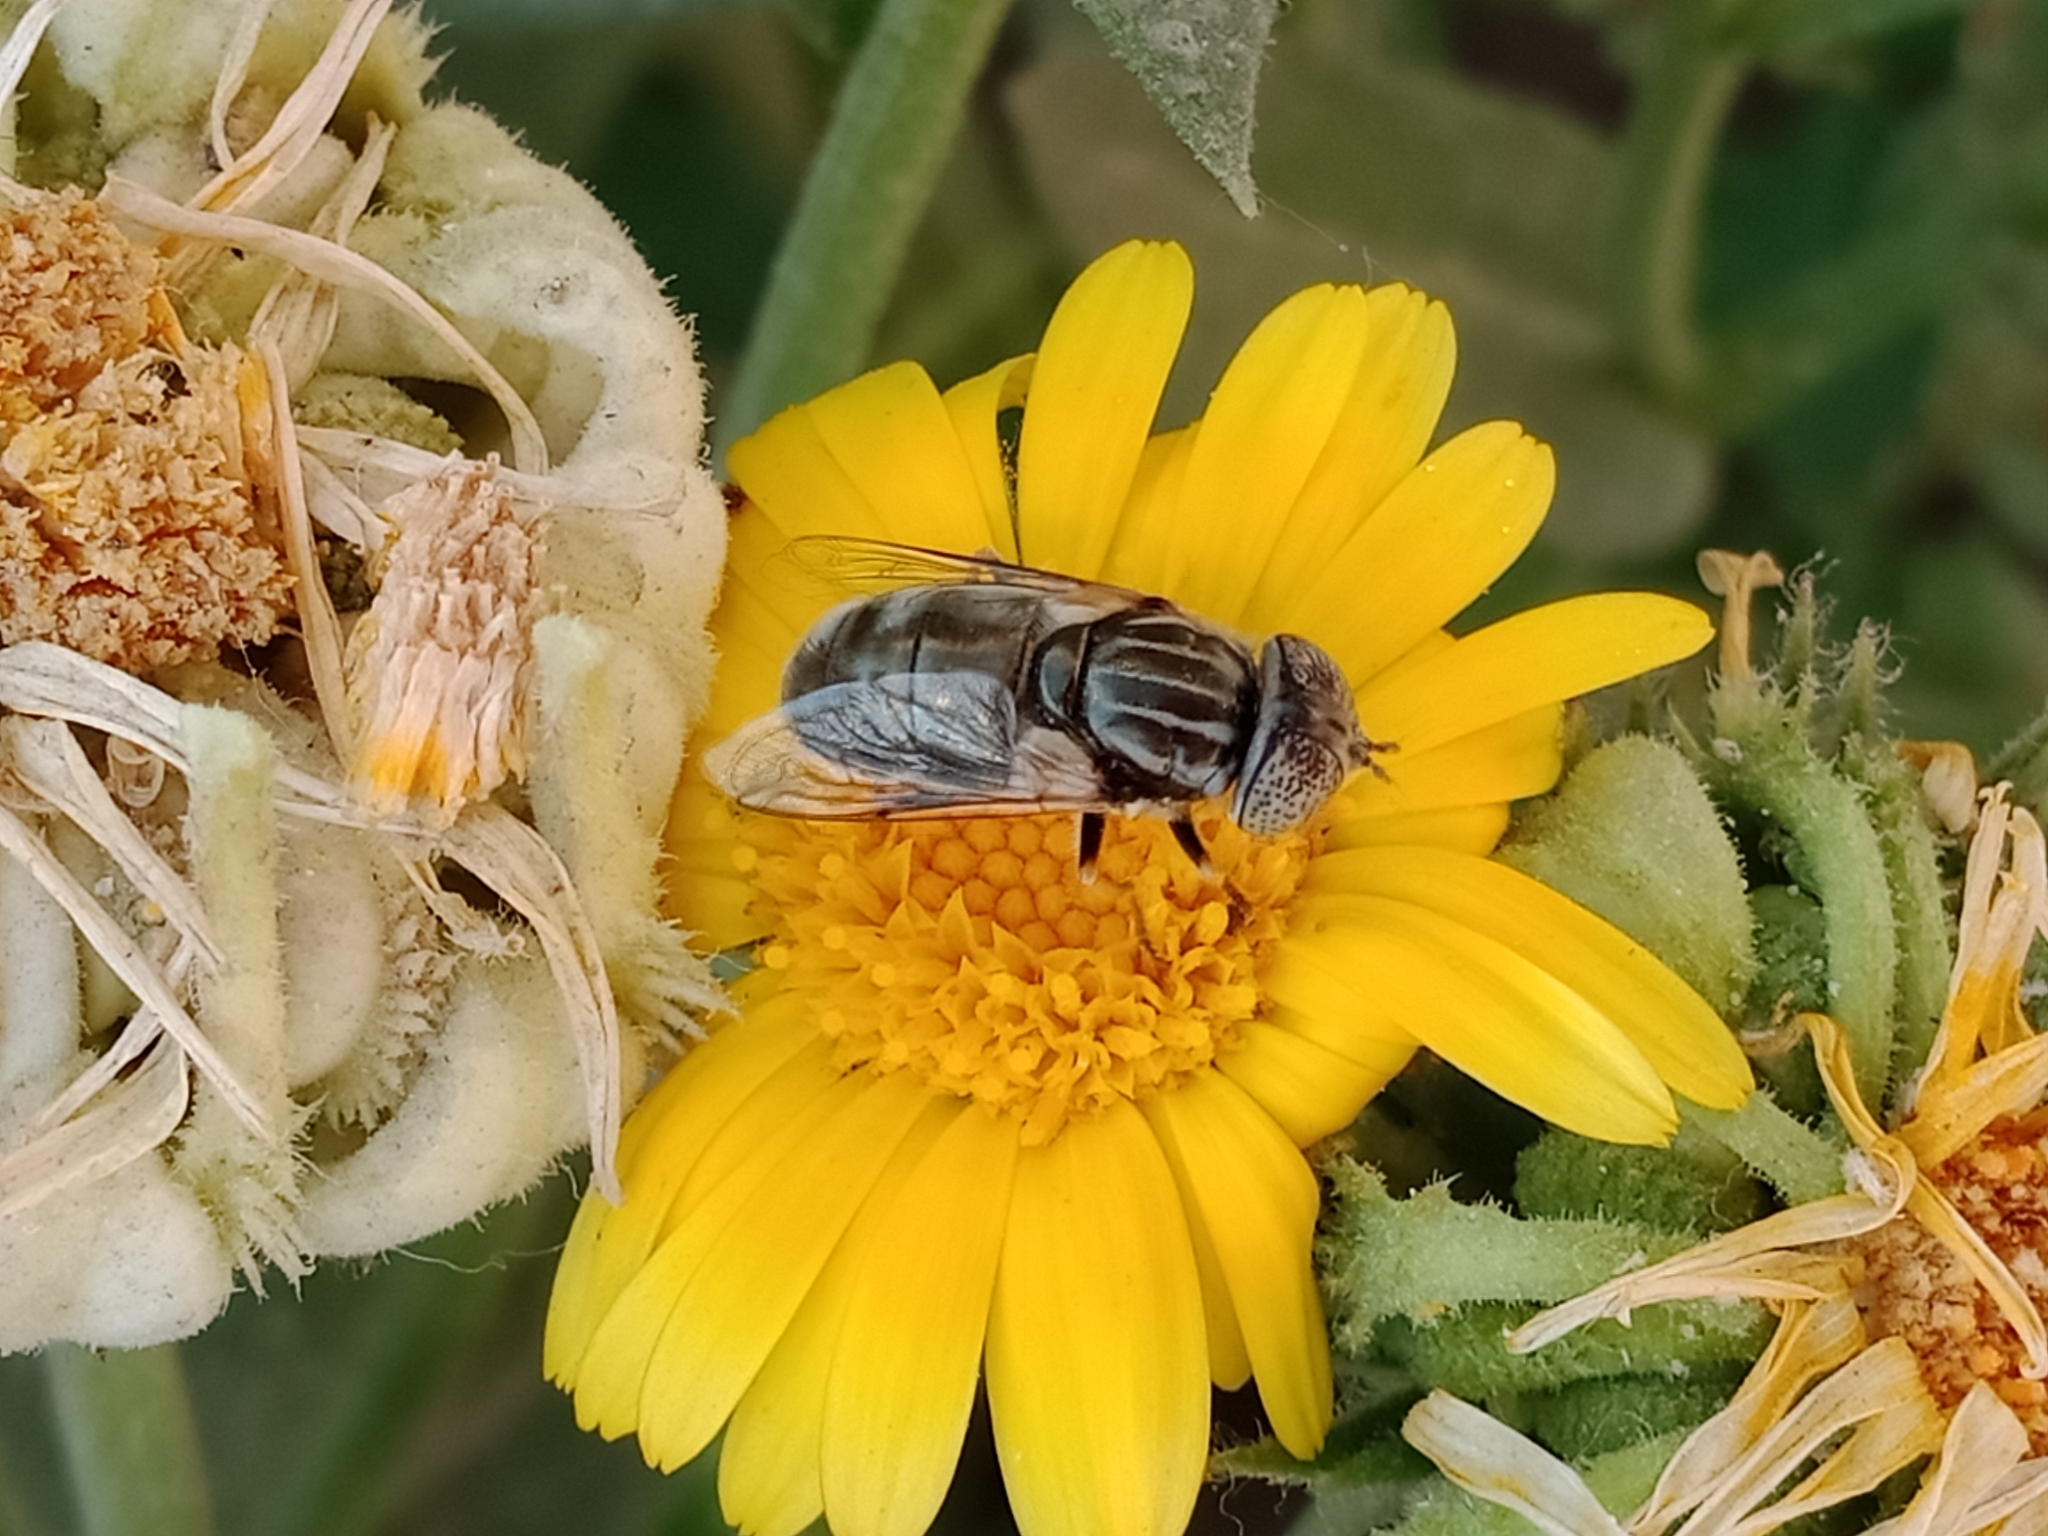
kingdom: Animalia
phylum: Arthropoda
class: Insecta
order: Diptera
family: Syrphidae
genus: Eristalinus
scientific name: Eristalinus aeneus
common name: Syrphid fly
